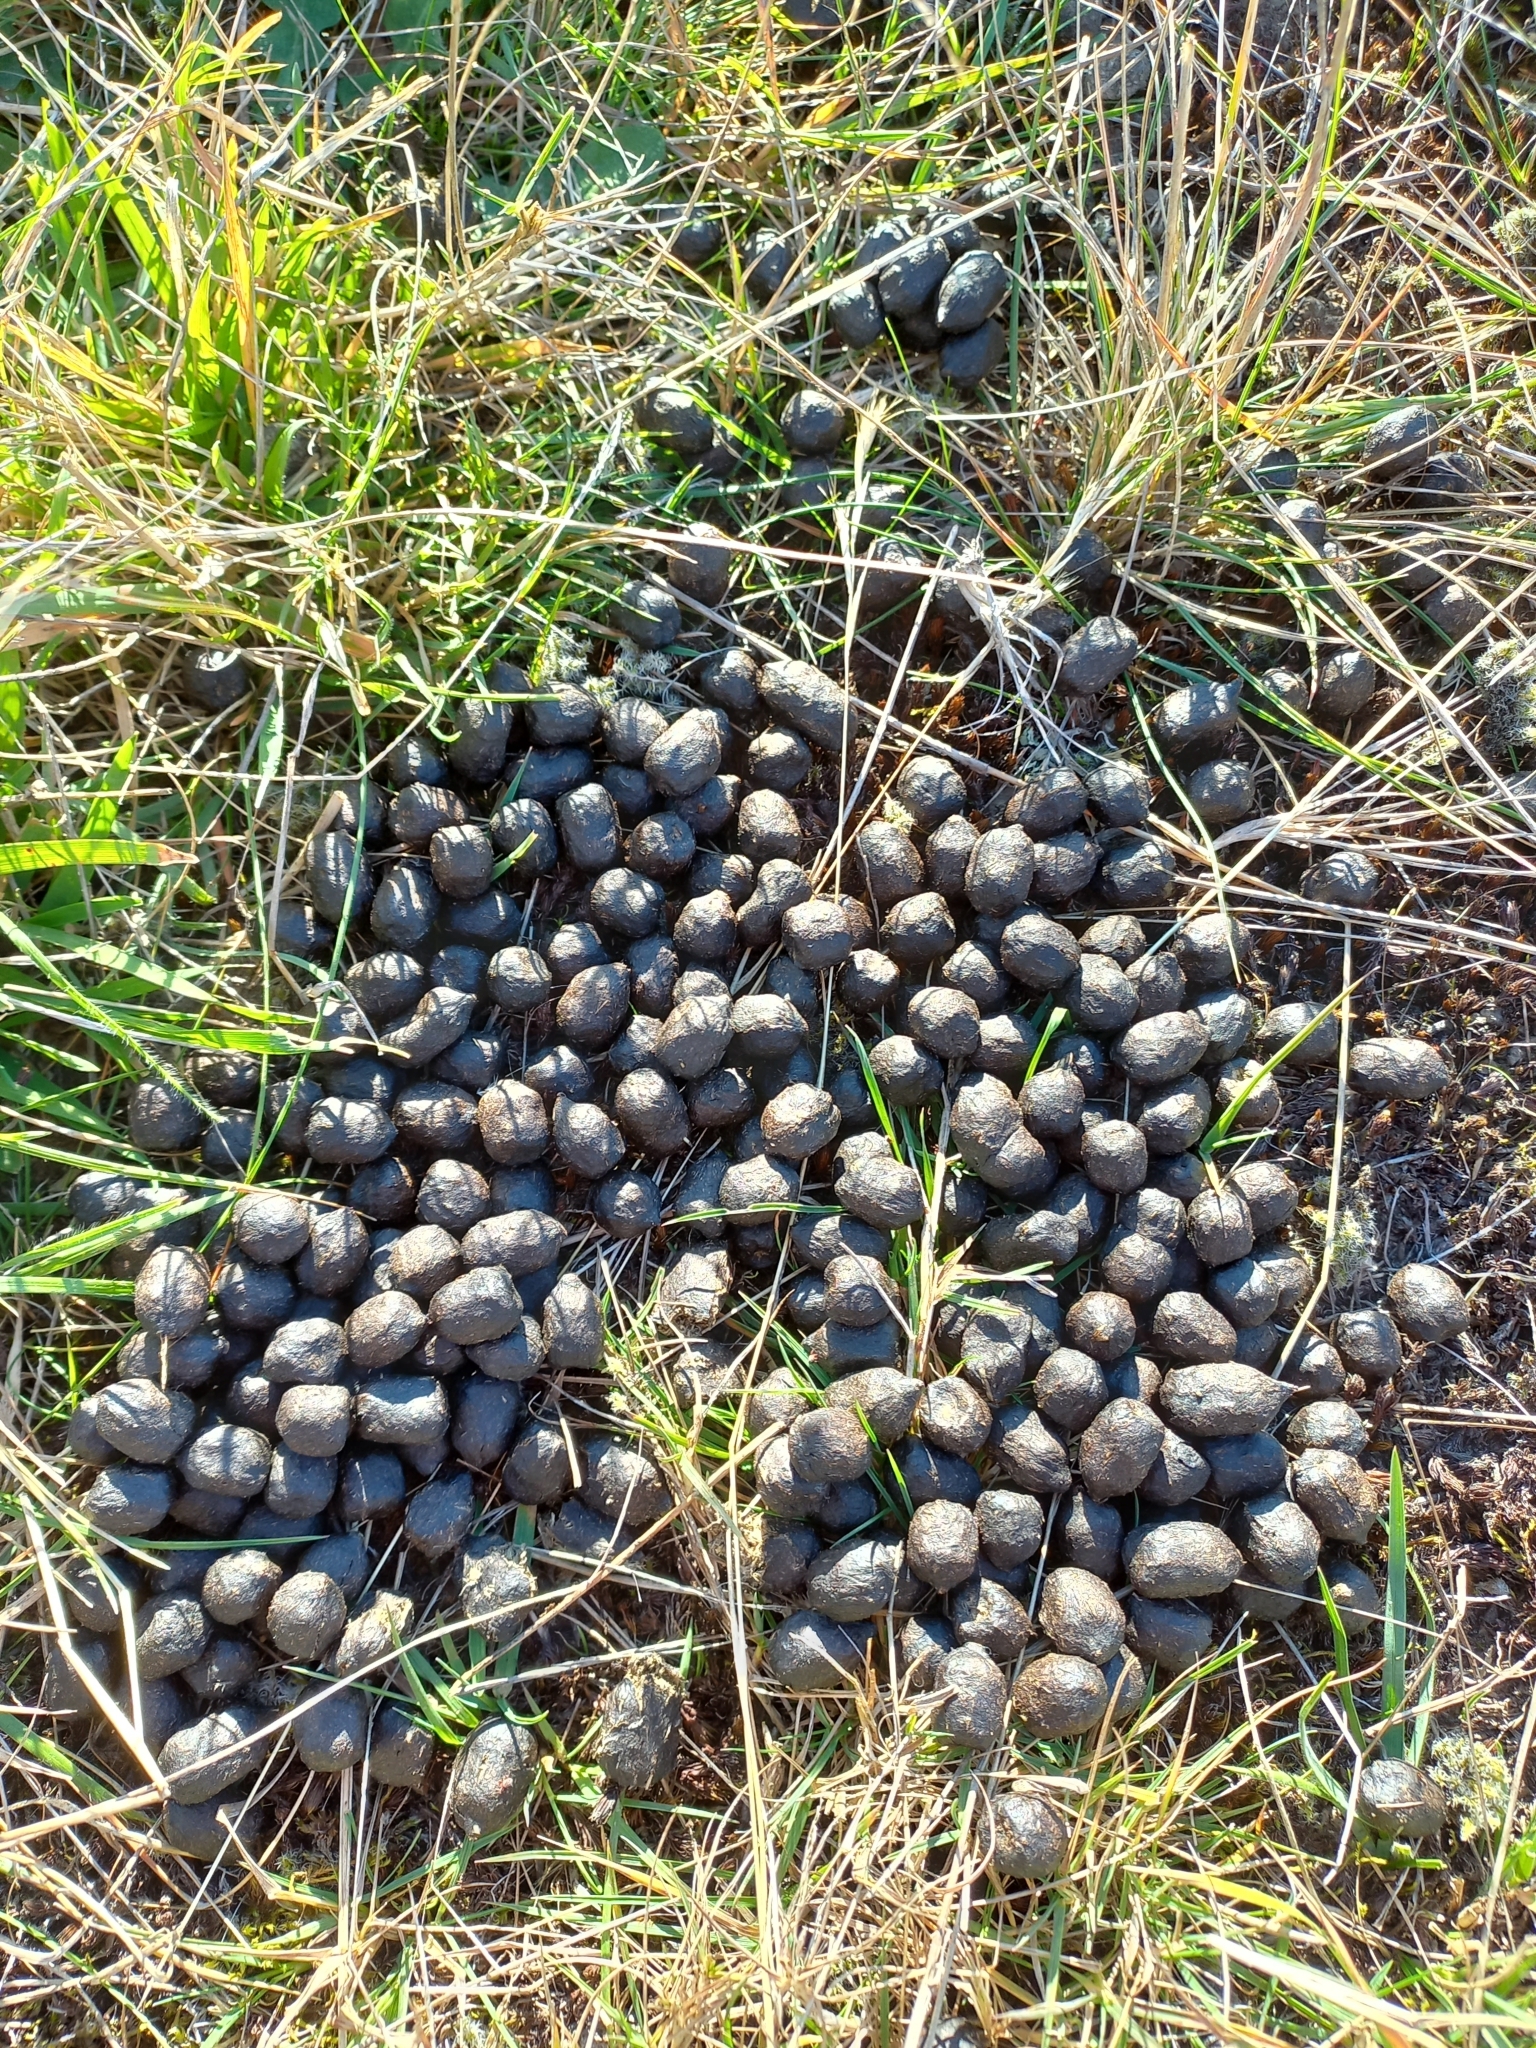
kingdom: Animalia
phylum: Chordata
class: Mammalia
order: Lagomorpha
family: Leporidae
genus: Oryctolagus
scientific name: Oryctolagus cuniculus
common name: European rabbit
